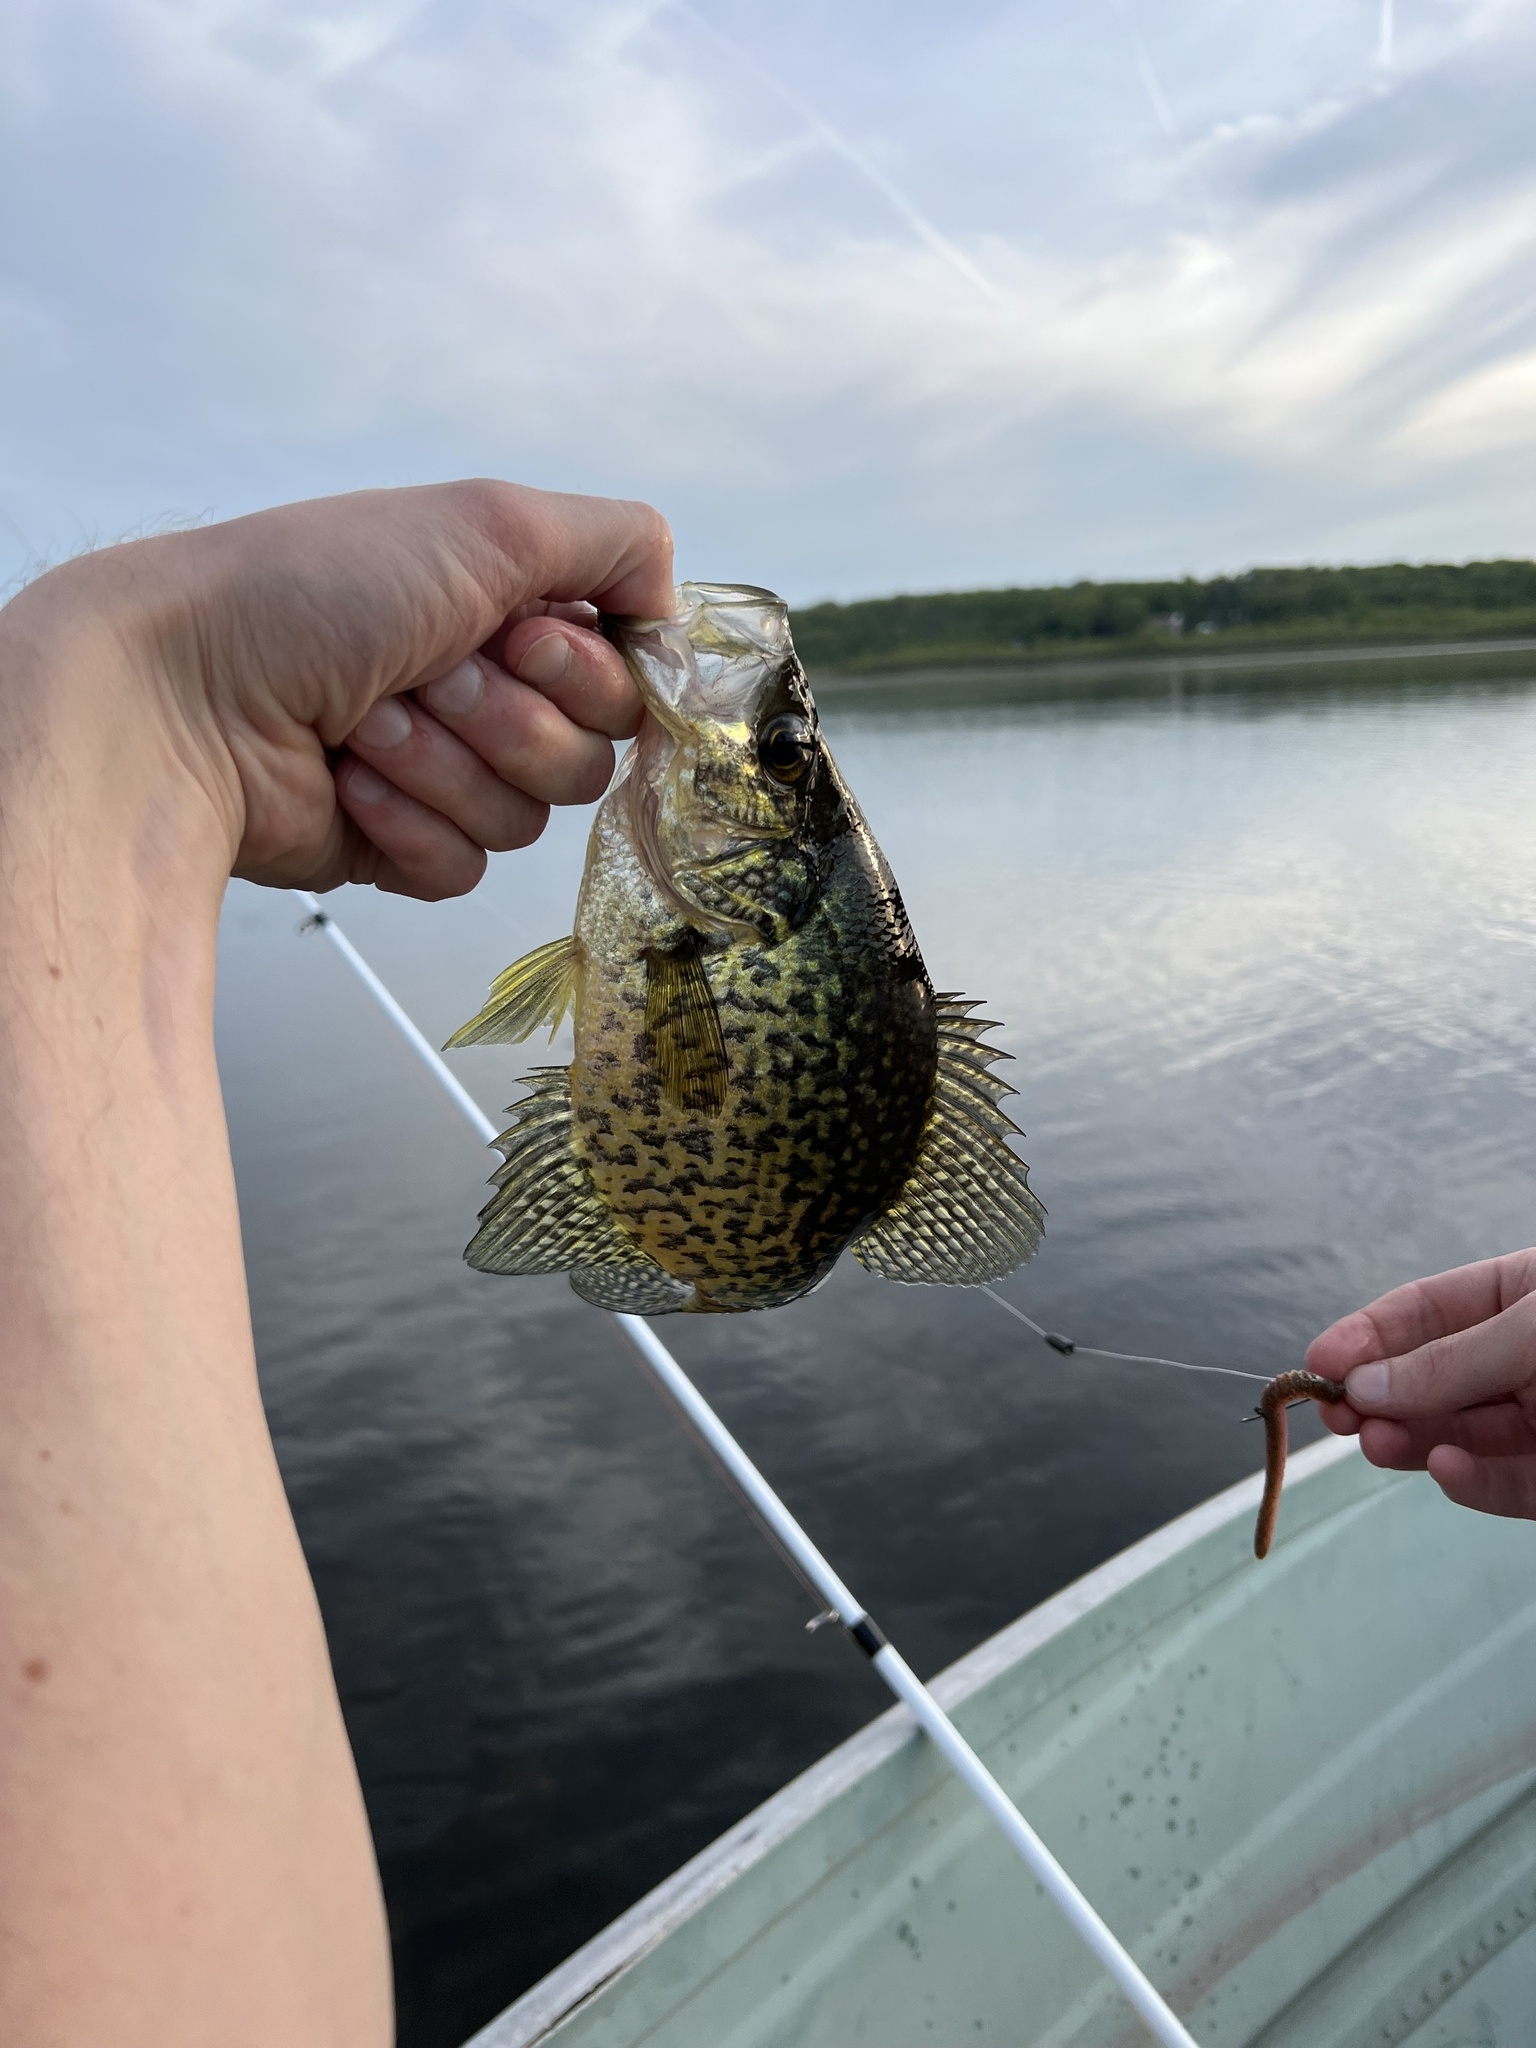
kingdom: Animalia
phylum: Chordata
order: Perciformes
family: Centrarchidae
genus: Pomoxis
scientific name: Pomoxis nigromaculatus
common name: Black crappie
